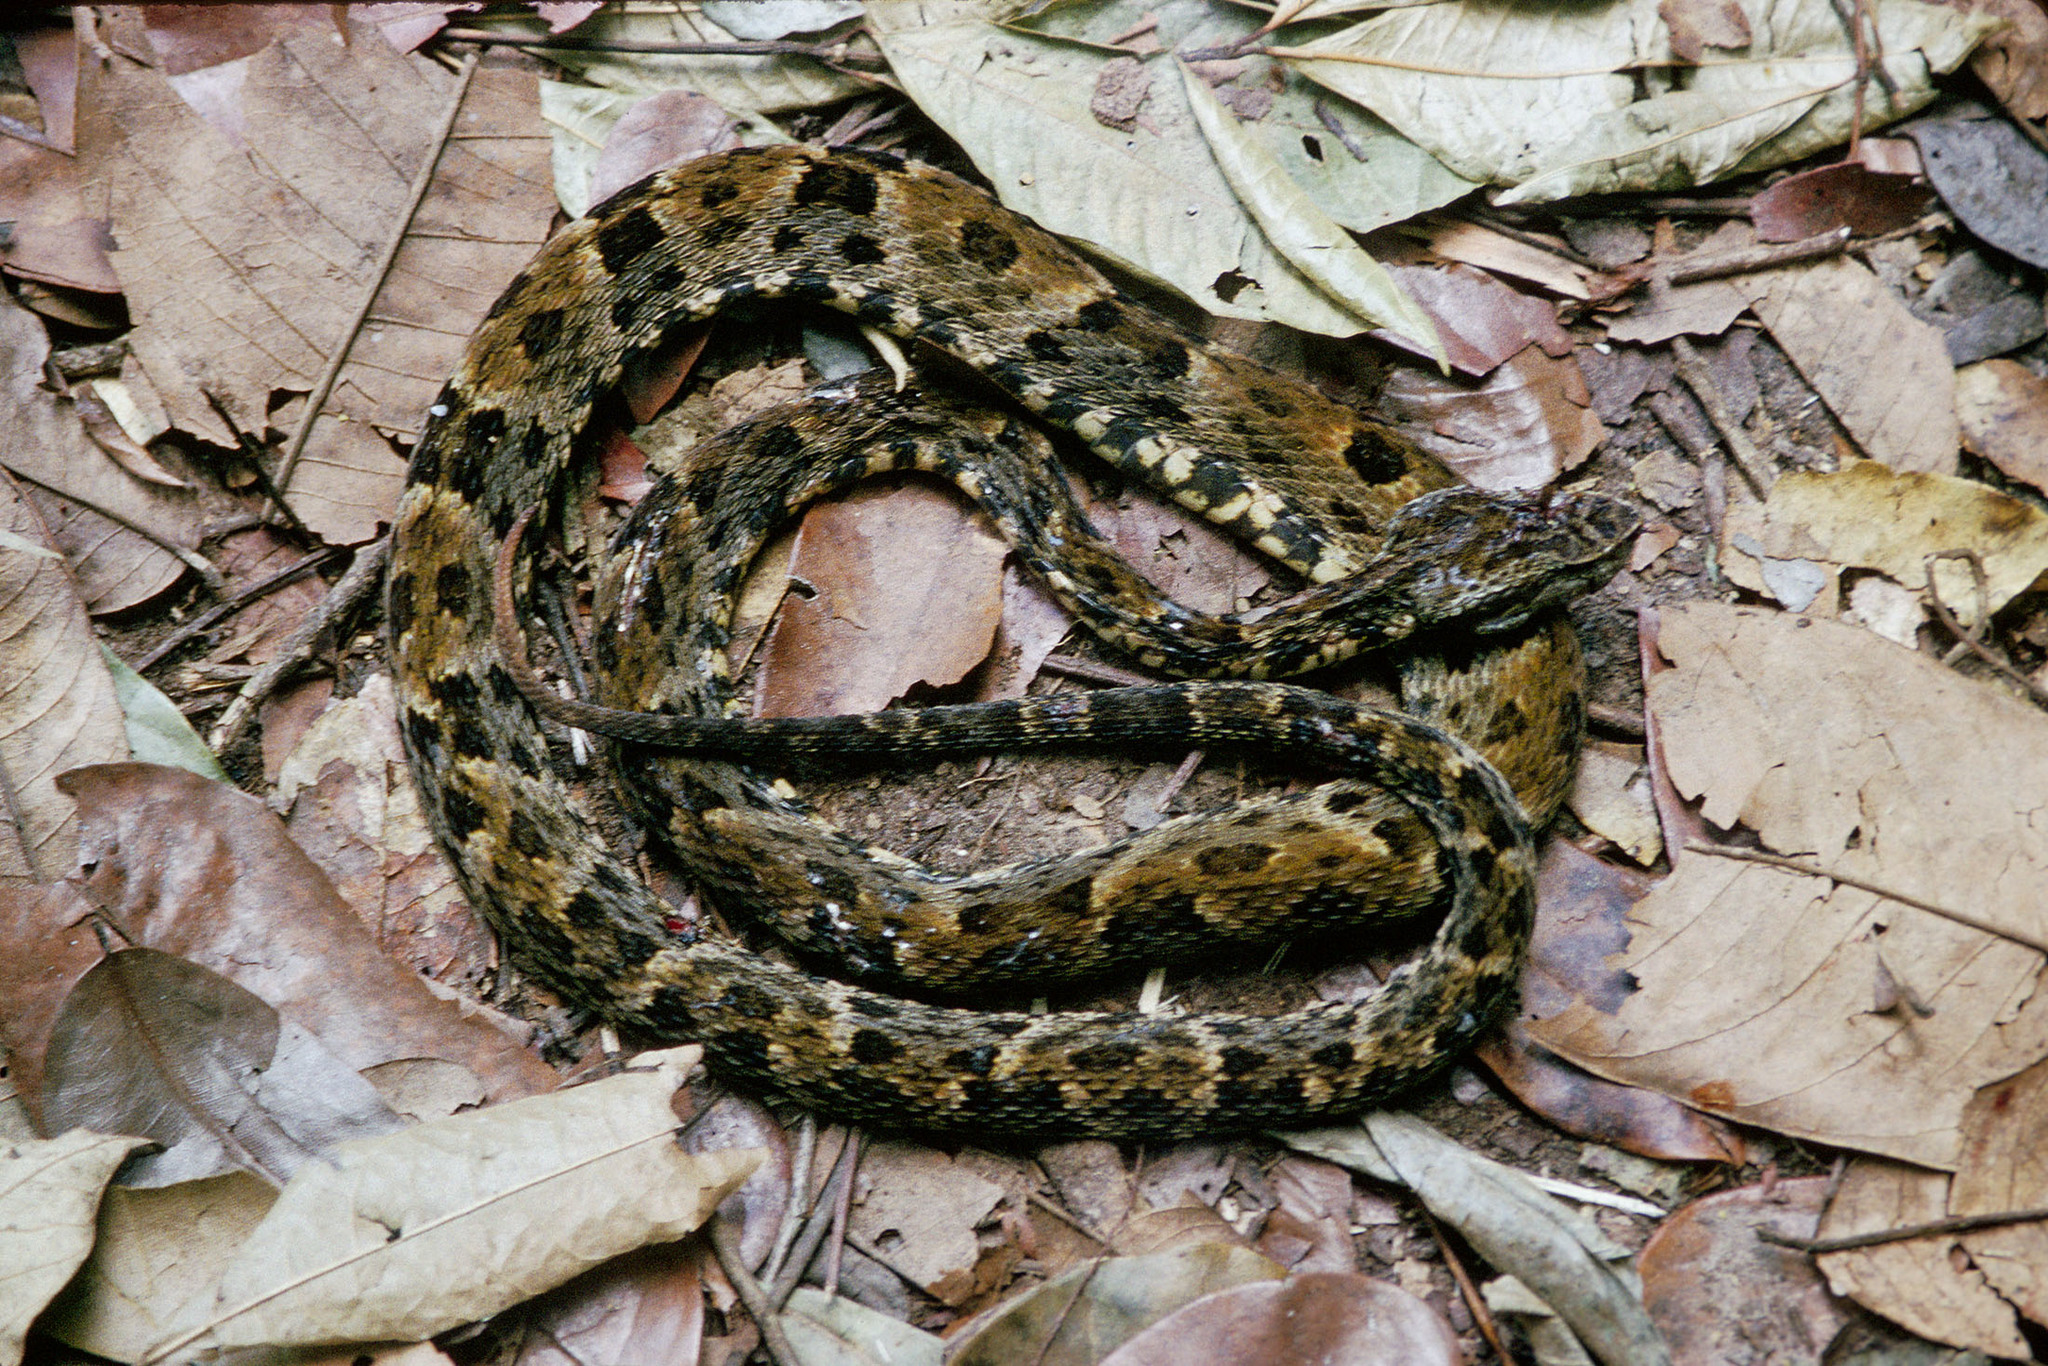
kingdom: Animalia
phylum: Chordata
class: Squamata
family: Viperidae
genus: Bothrops
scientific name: Bothrops atrox
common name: Common lancehead
